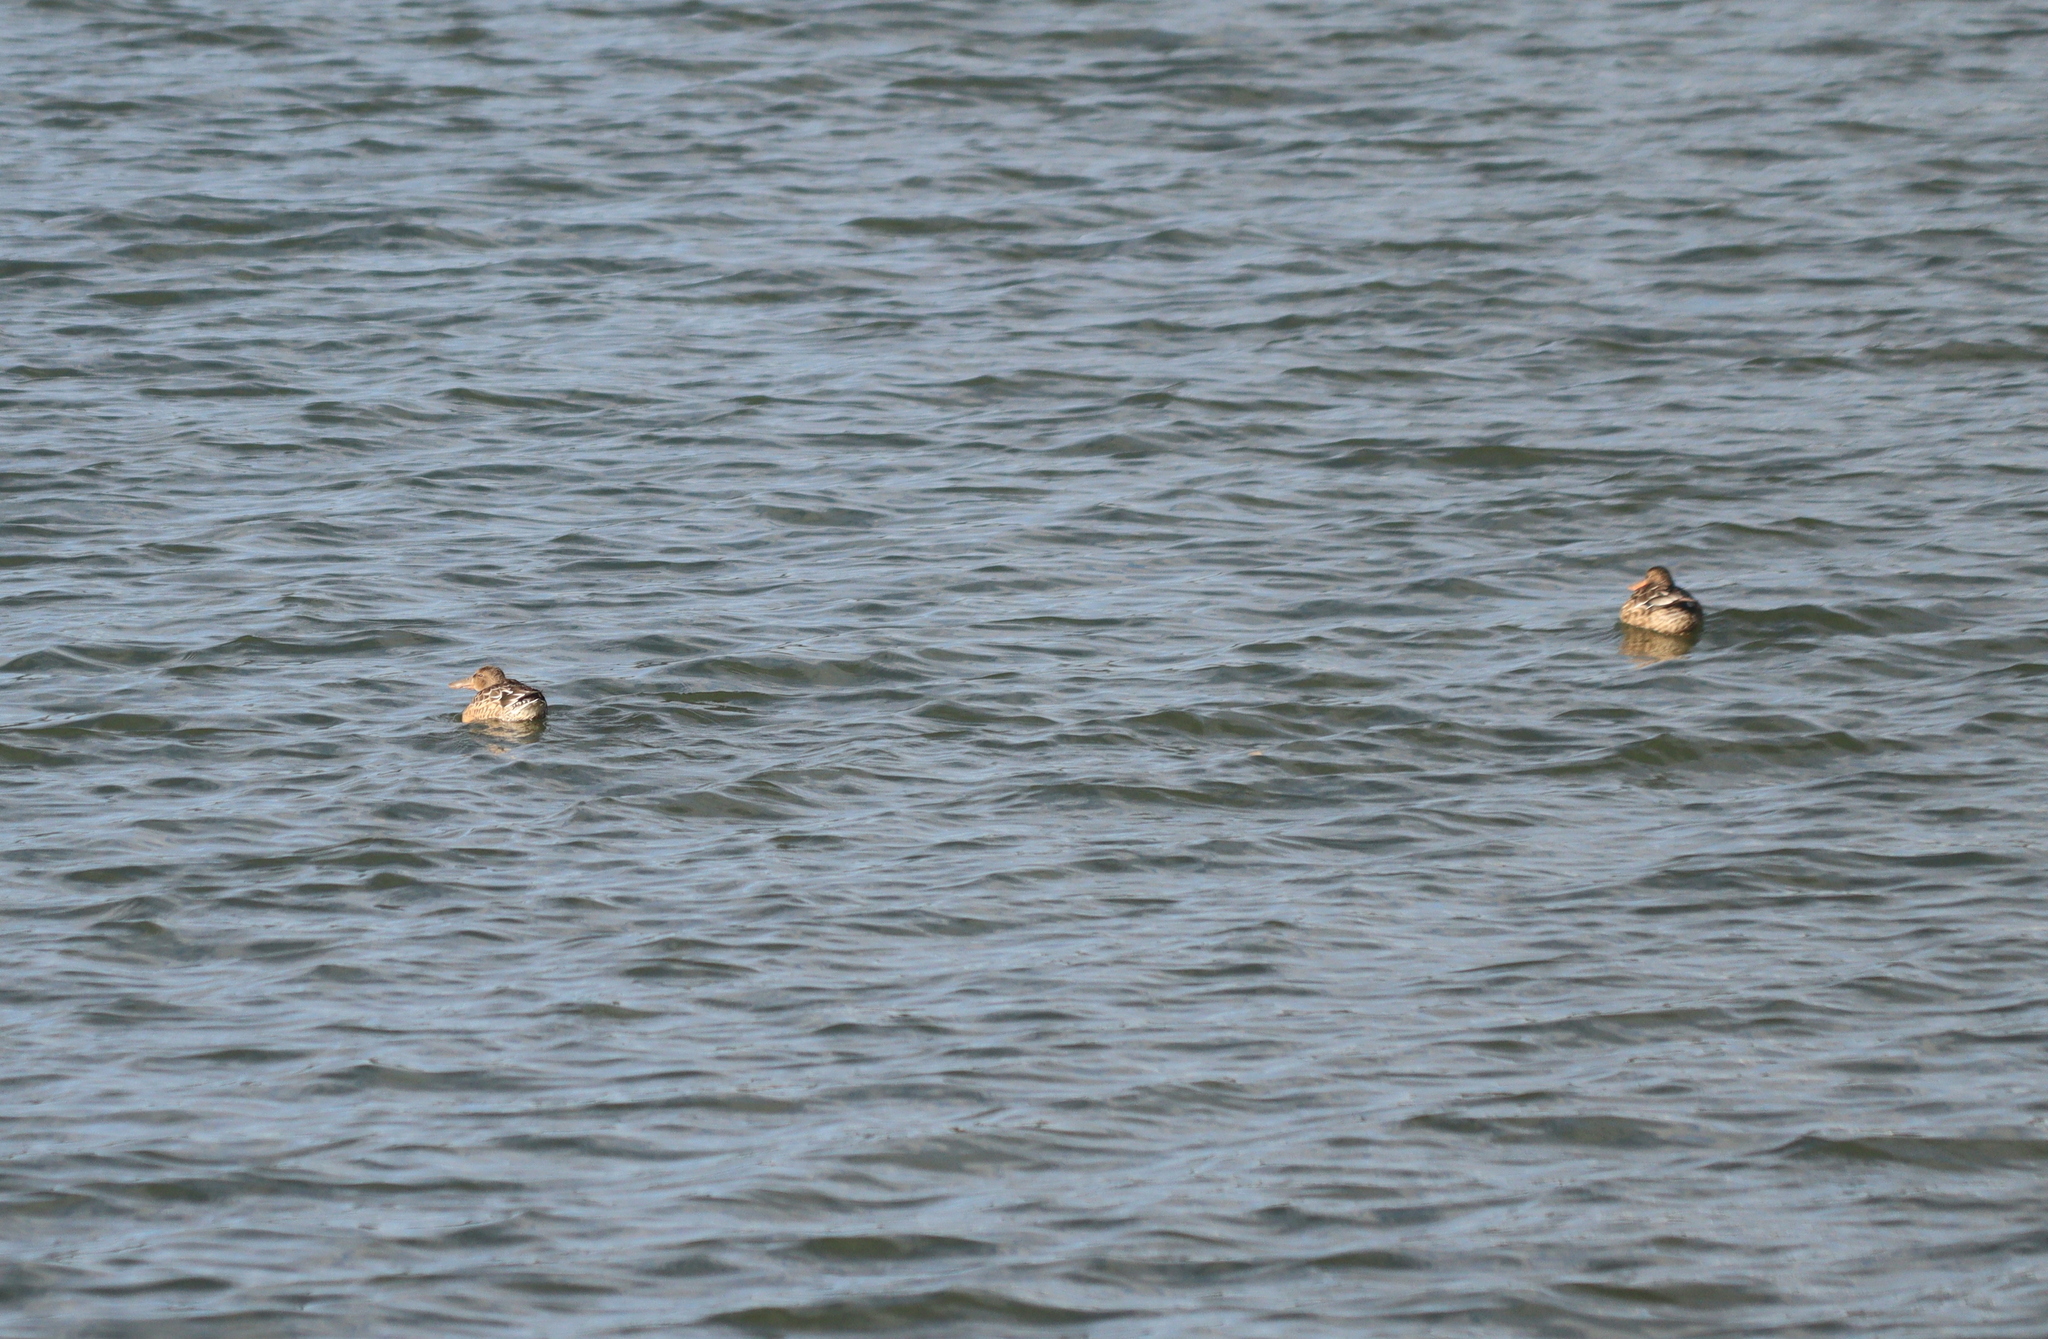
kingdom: Animalia
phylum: Chordata
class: Aves
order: Anseriformes
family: Anatidae
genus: Spatula
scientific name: Spatula clypeata
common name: Northern shoveler
